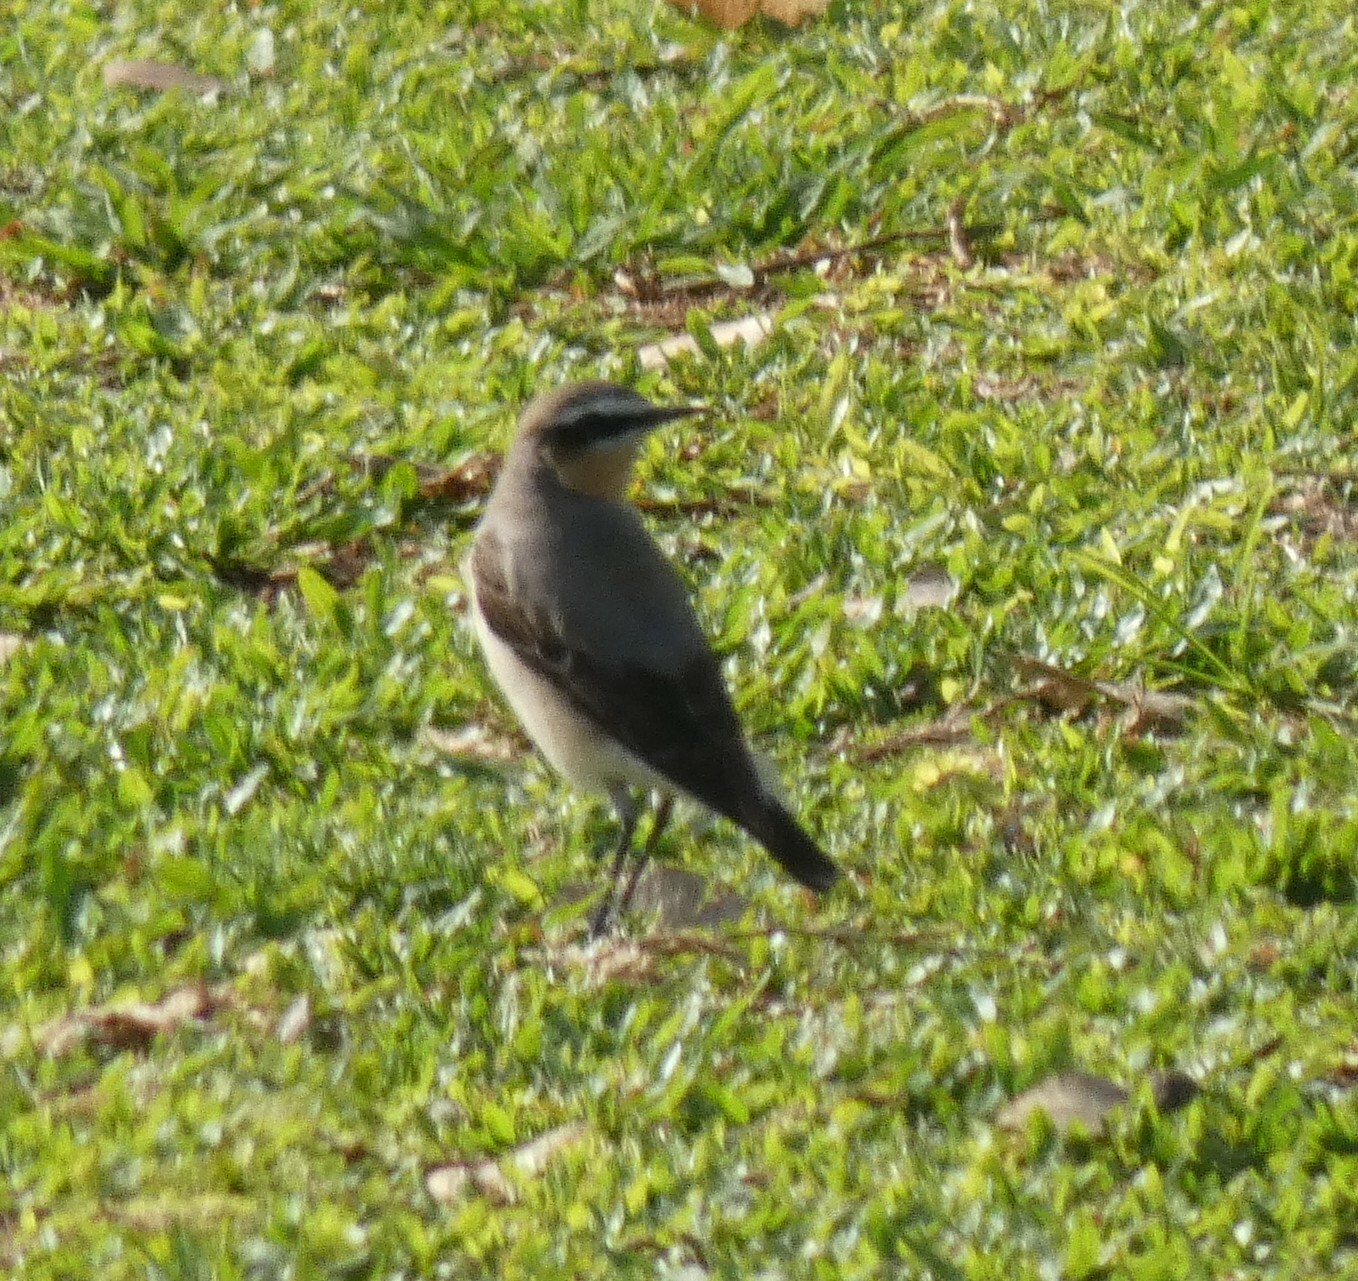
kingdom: Animalia
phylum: Chordata
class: Aves
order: Passeriformes
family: Muscicapidae
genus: Oenanthe
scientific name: Oenanthe oenanthe
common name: Northern wheatear
